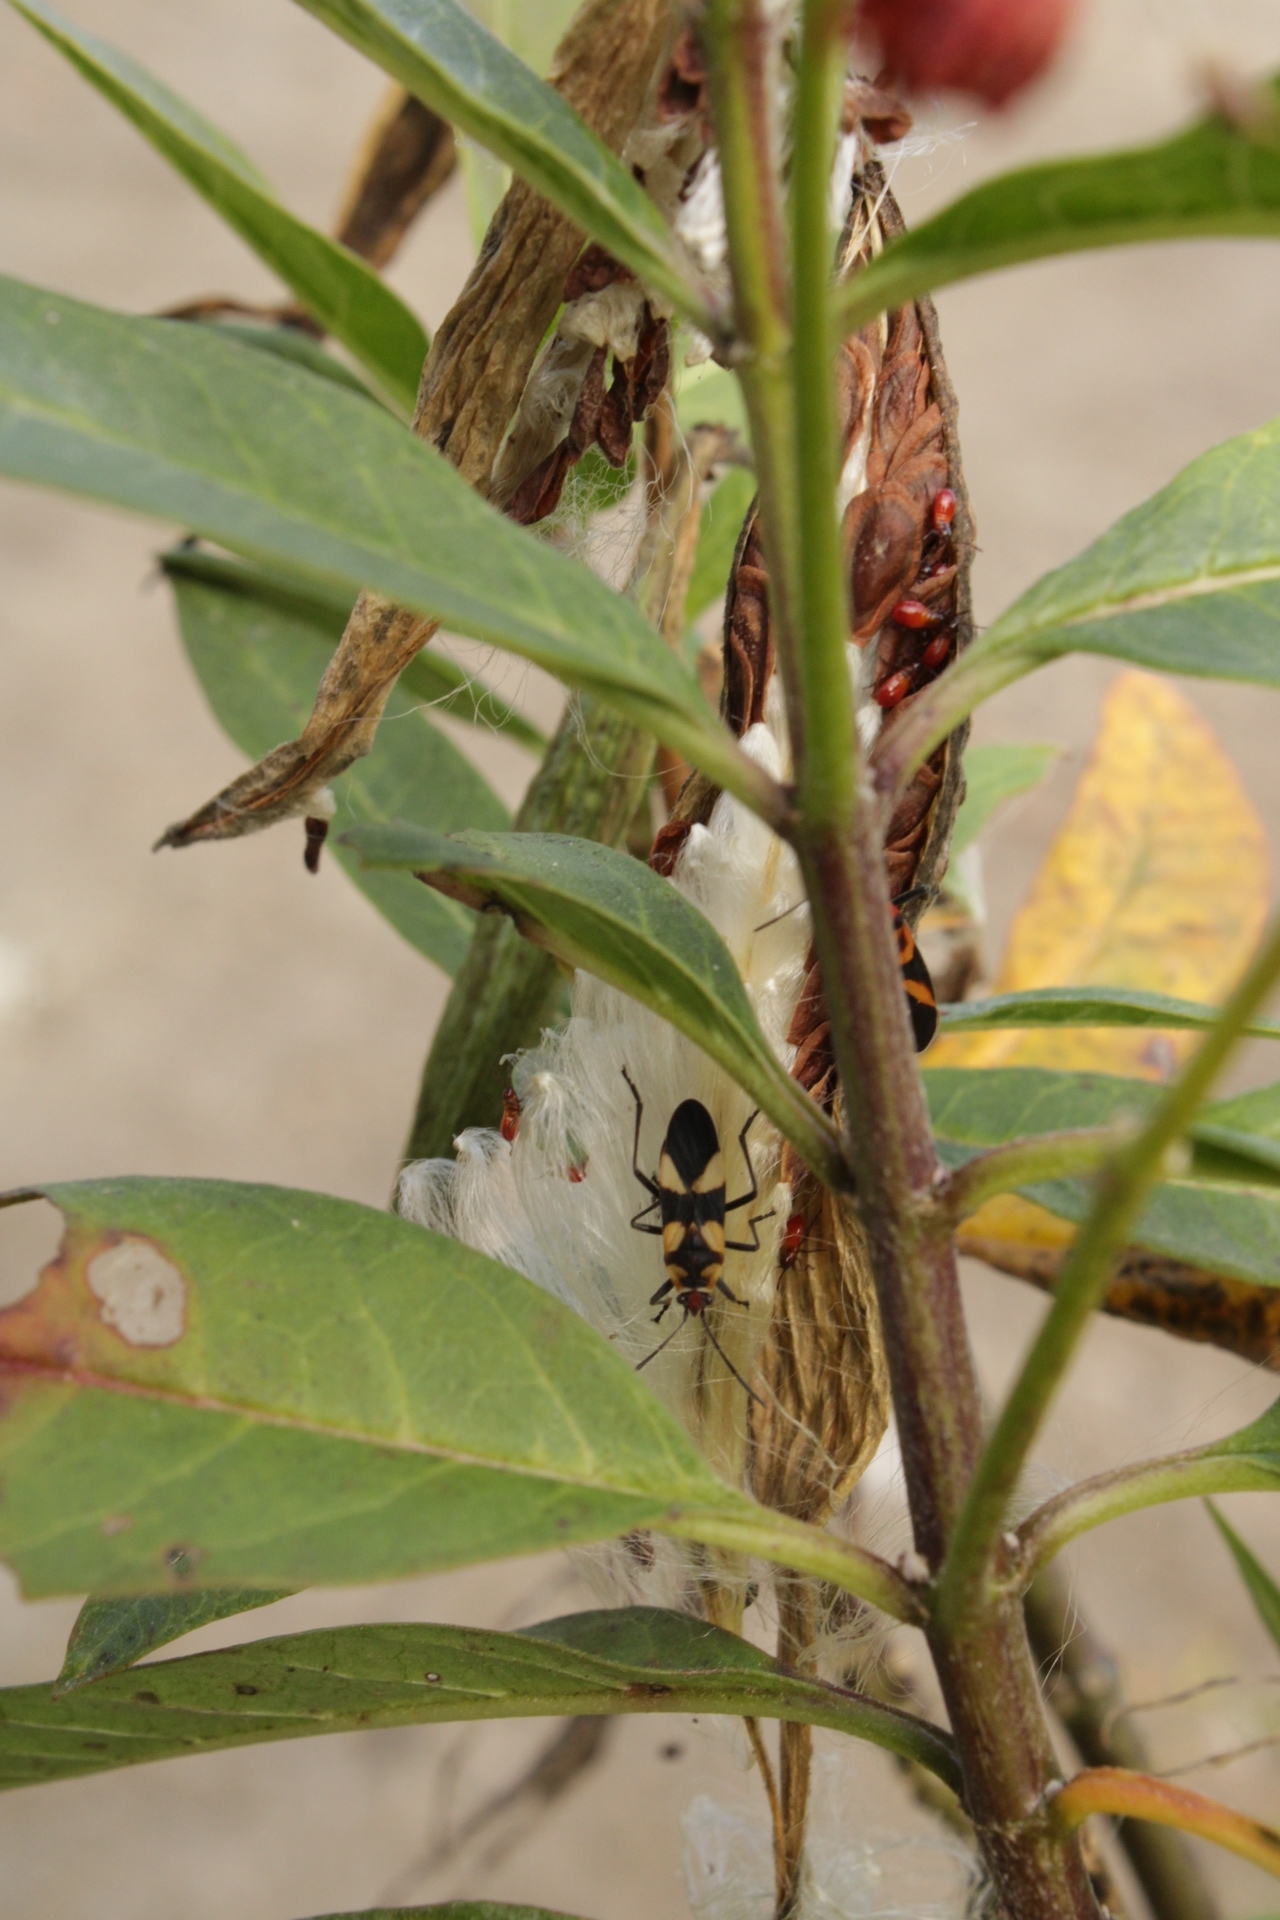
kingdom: Animalia
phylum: Arthropoda
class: Insecta
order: Hemiptera
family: Lygaeidae
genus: Oncopeltus
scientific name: Oncopeltus cingulifer
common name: Lygaeid bug
